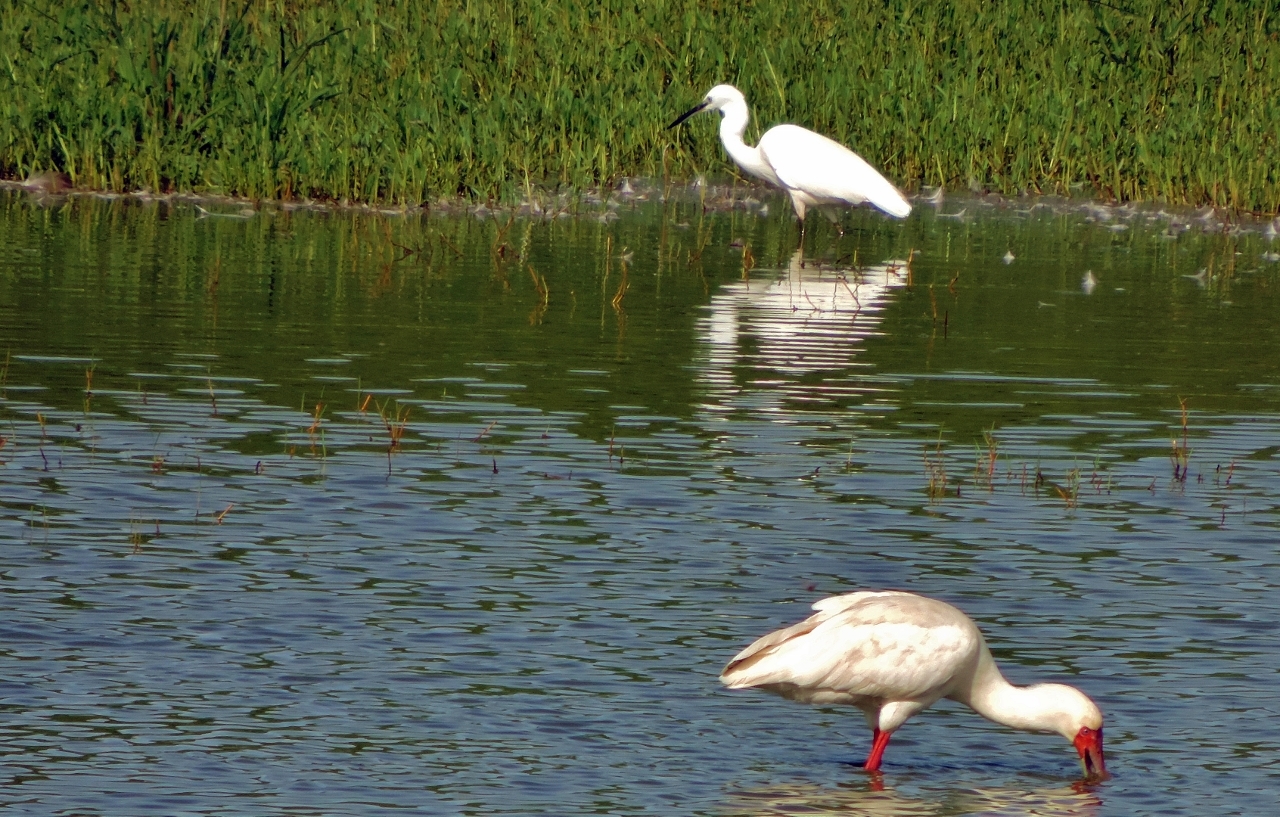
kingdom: Animalia
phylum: Chordata
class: Aves
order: Pelecaniformes
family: Ardeidae
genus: Egretta
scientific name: Egretta garzetta
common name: Little egret
